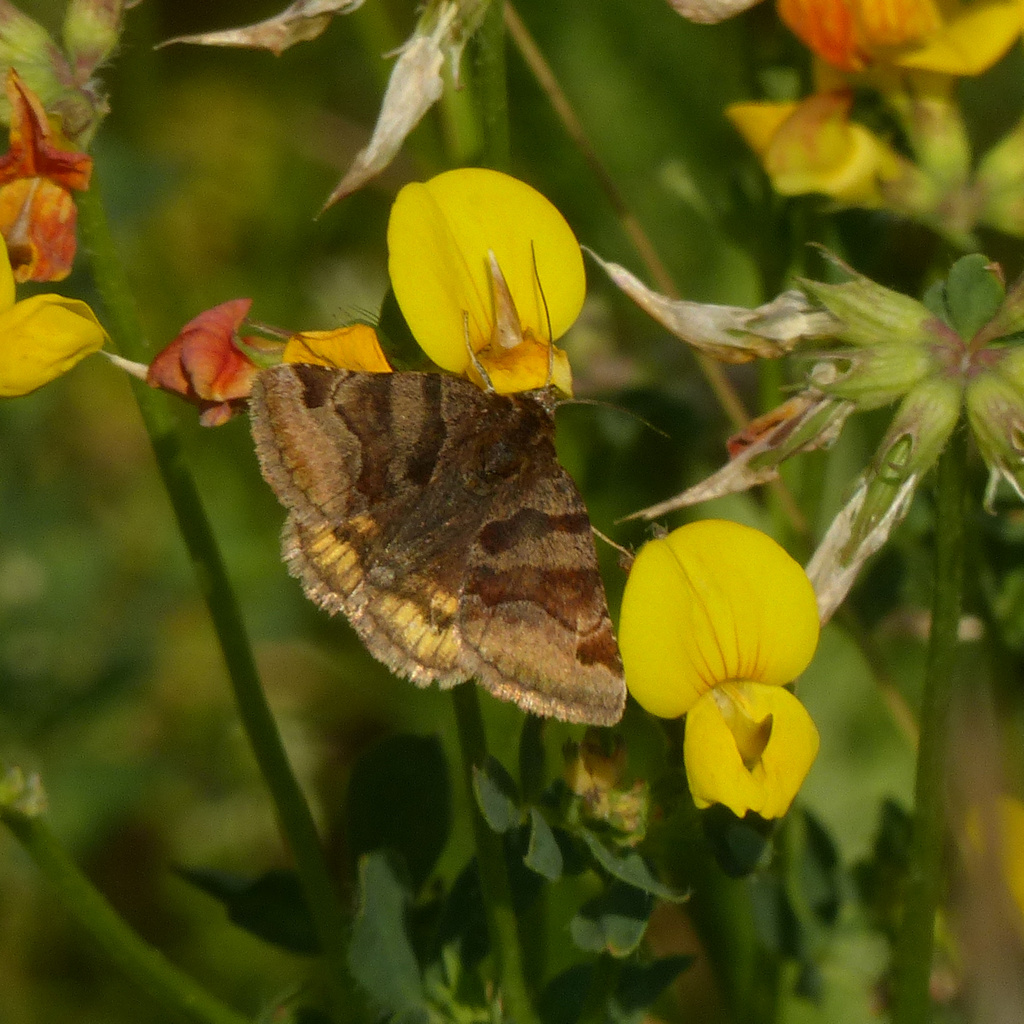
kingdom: Animalia
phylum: Arthropoda
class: Insecta
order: Lepidoptera
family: Erebidae
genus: Euclidia
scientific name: Euclidia glyphica
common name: Burnet companion
